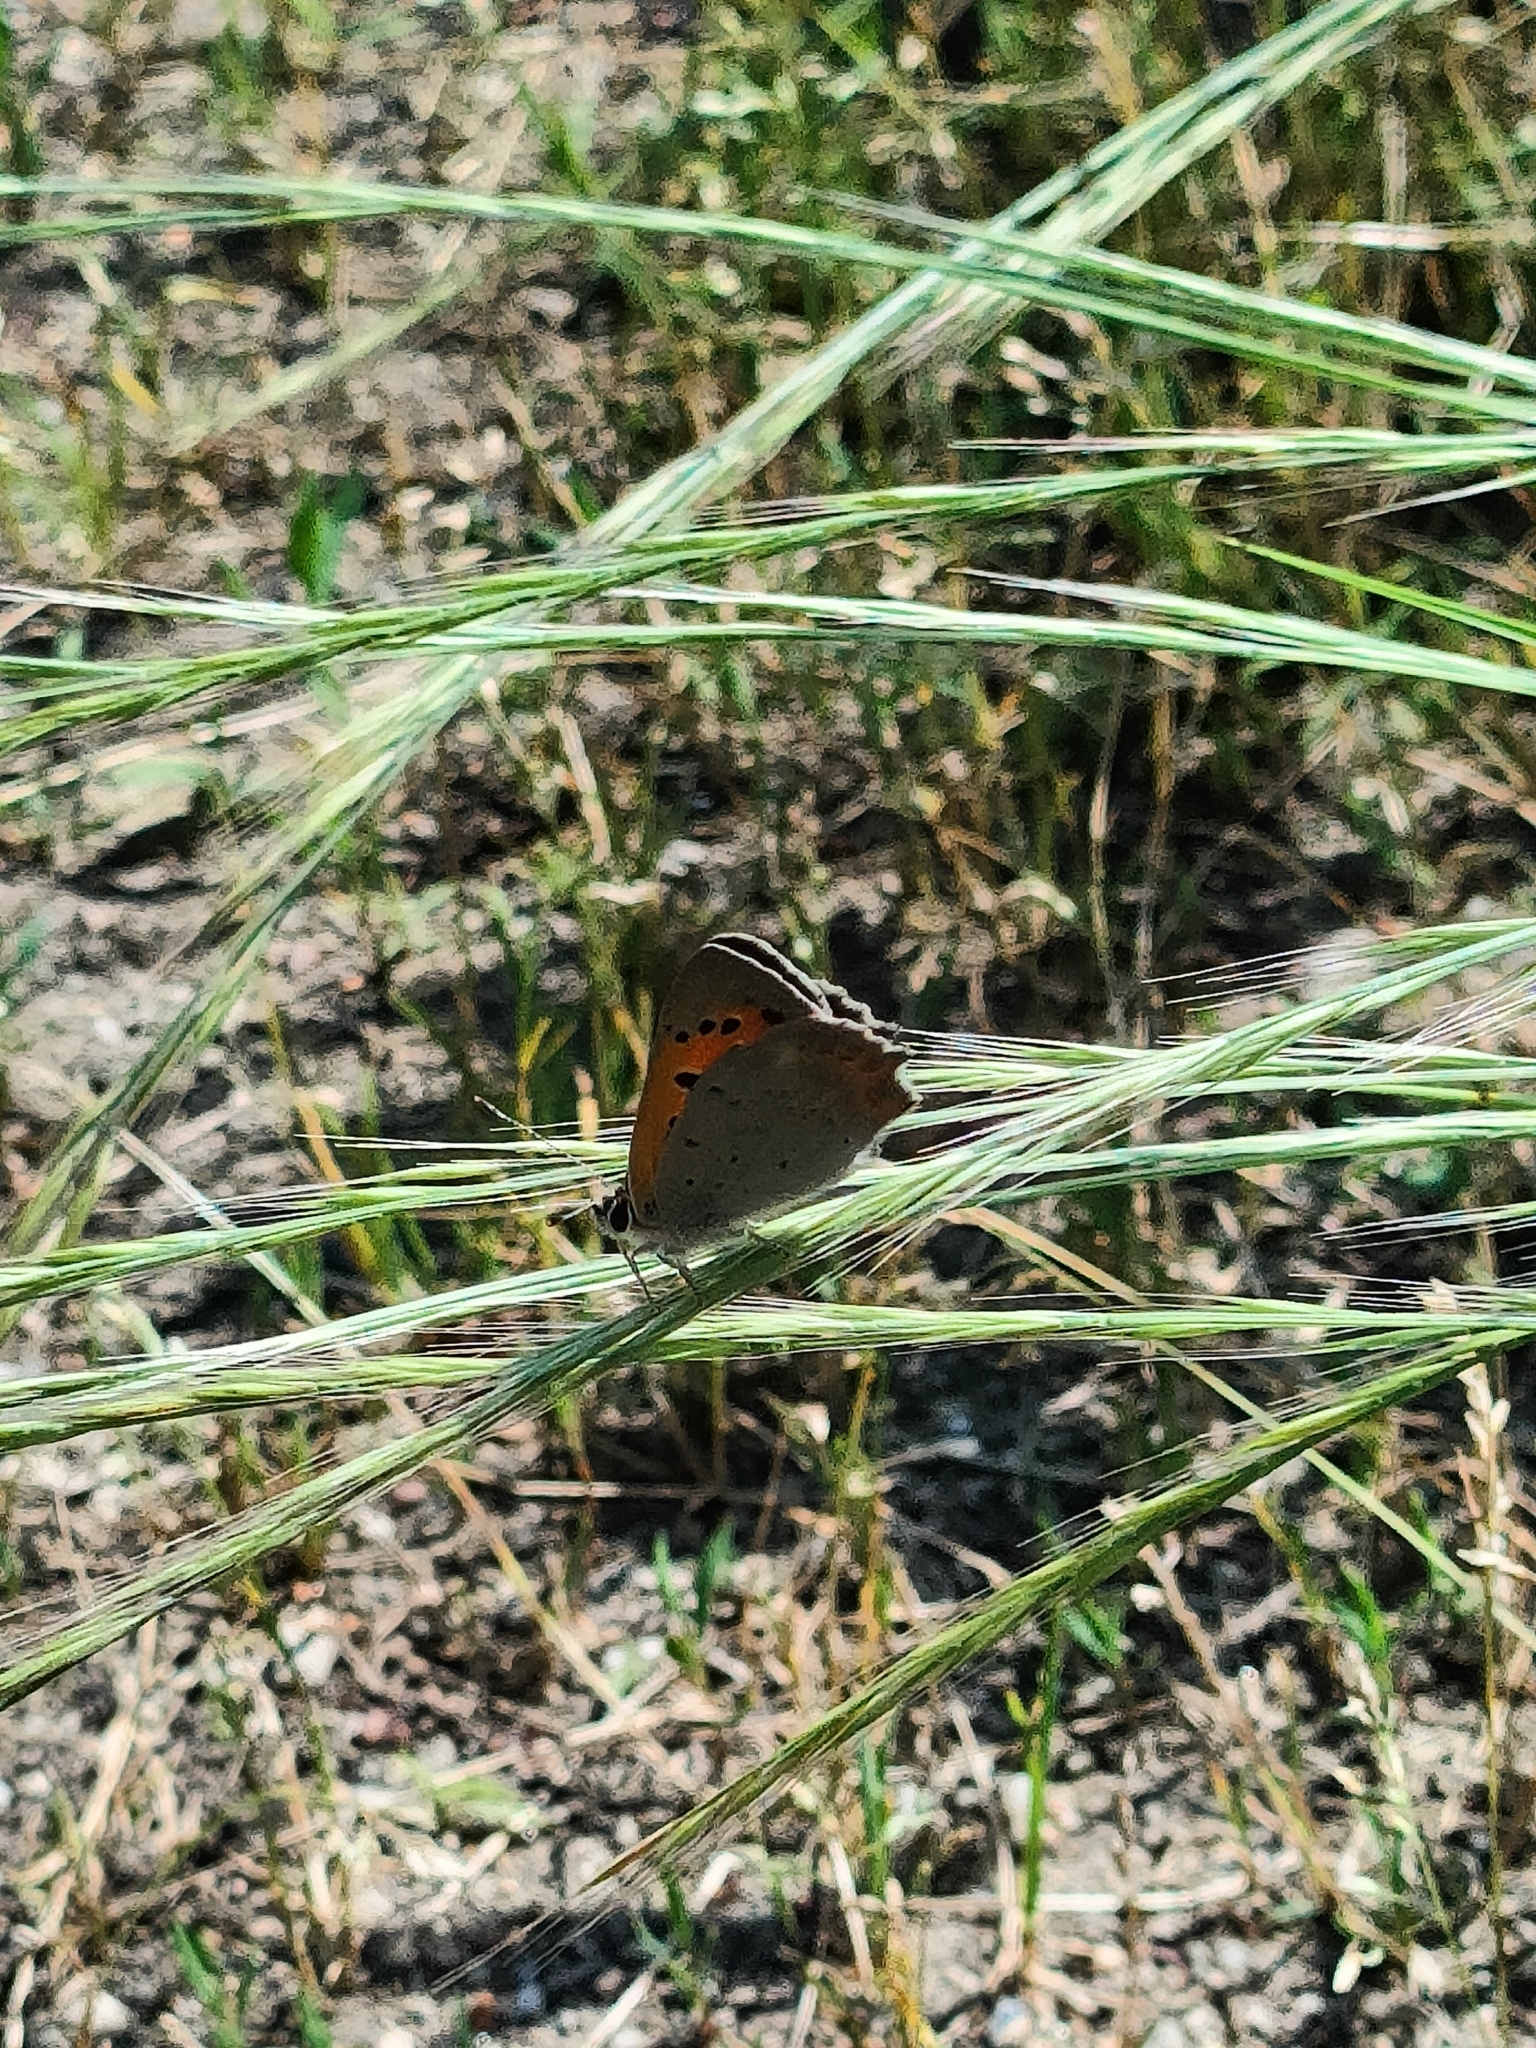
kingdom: Animalia
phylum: Arthropoda
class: Insecta
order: Lepidoptera
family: Lycaenidae
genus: Lycaena
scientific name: Lycaena phlaeas
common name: Small copper
